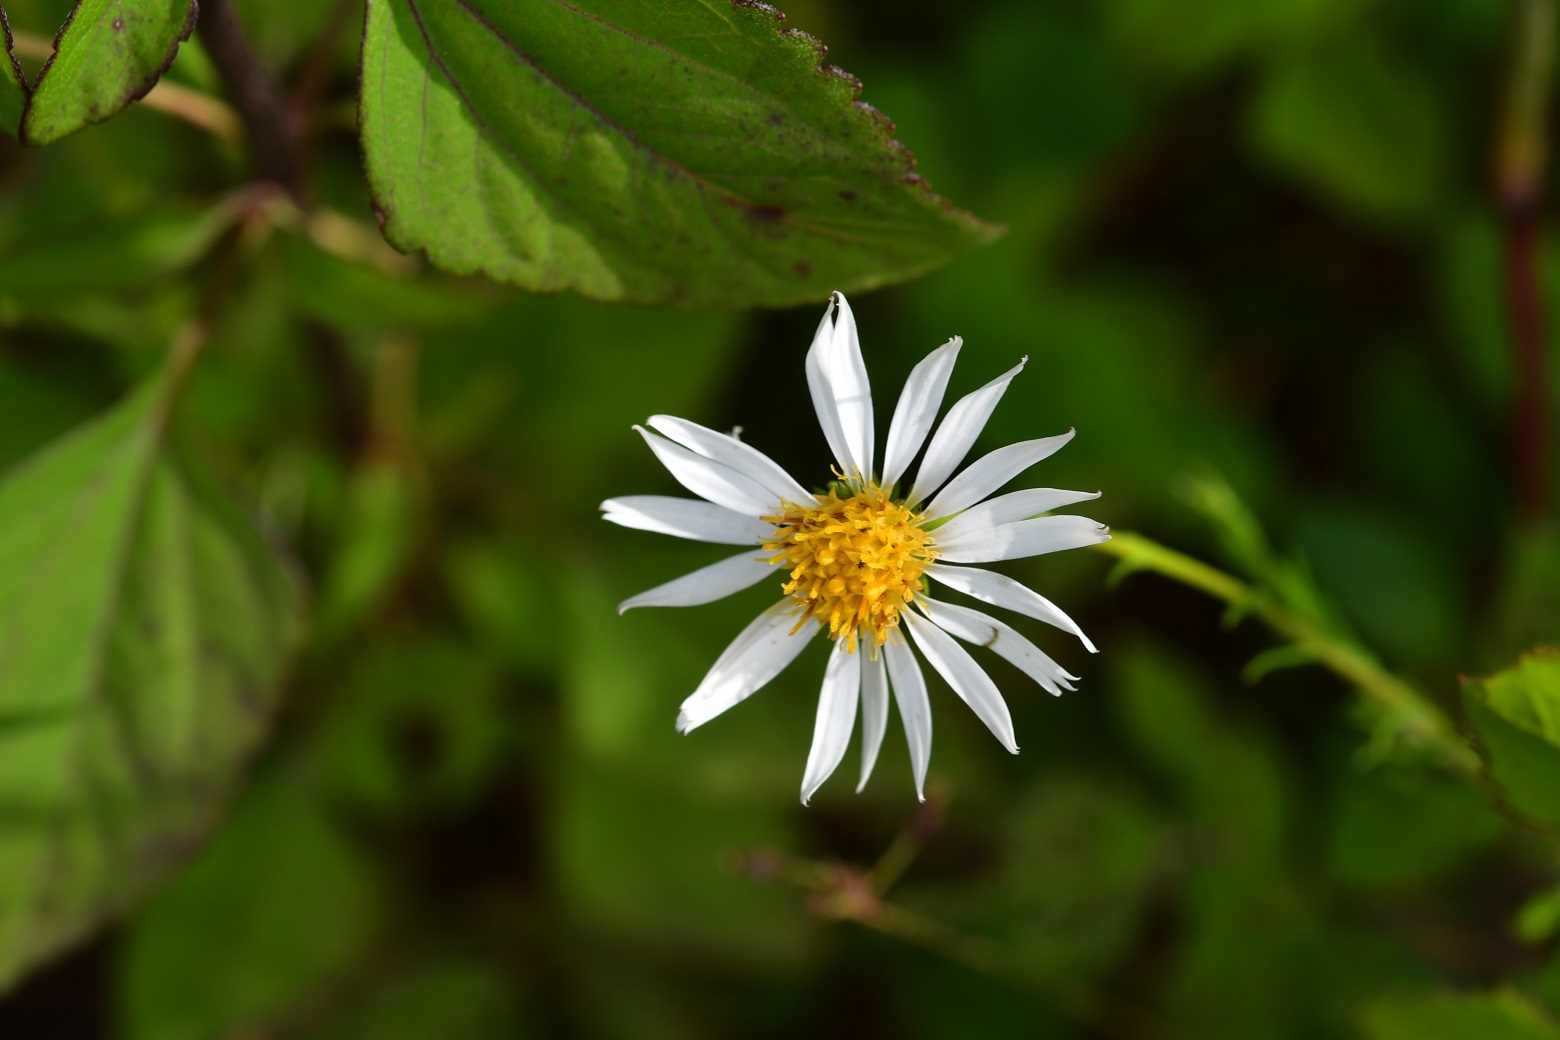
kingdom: Plantae
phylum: Tracheophyta
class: Magnoliopsida
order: Asterales
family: Asteraceae
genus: Erigeron
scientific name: Erigeron karvinskianus
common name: Mexican fleabane
